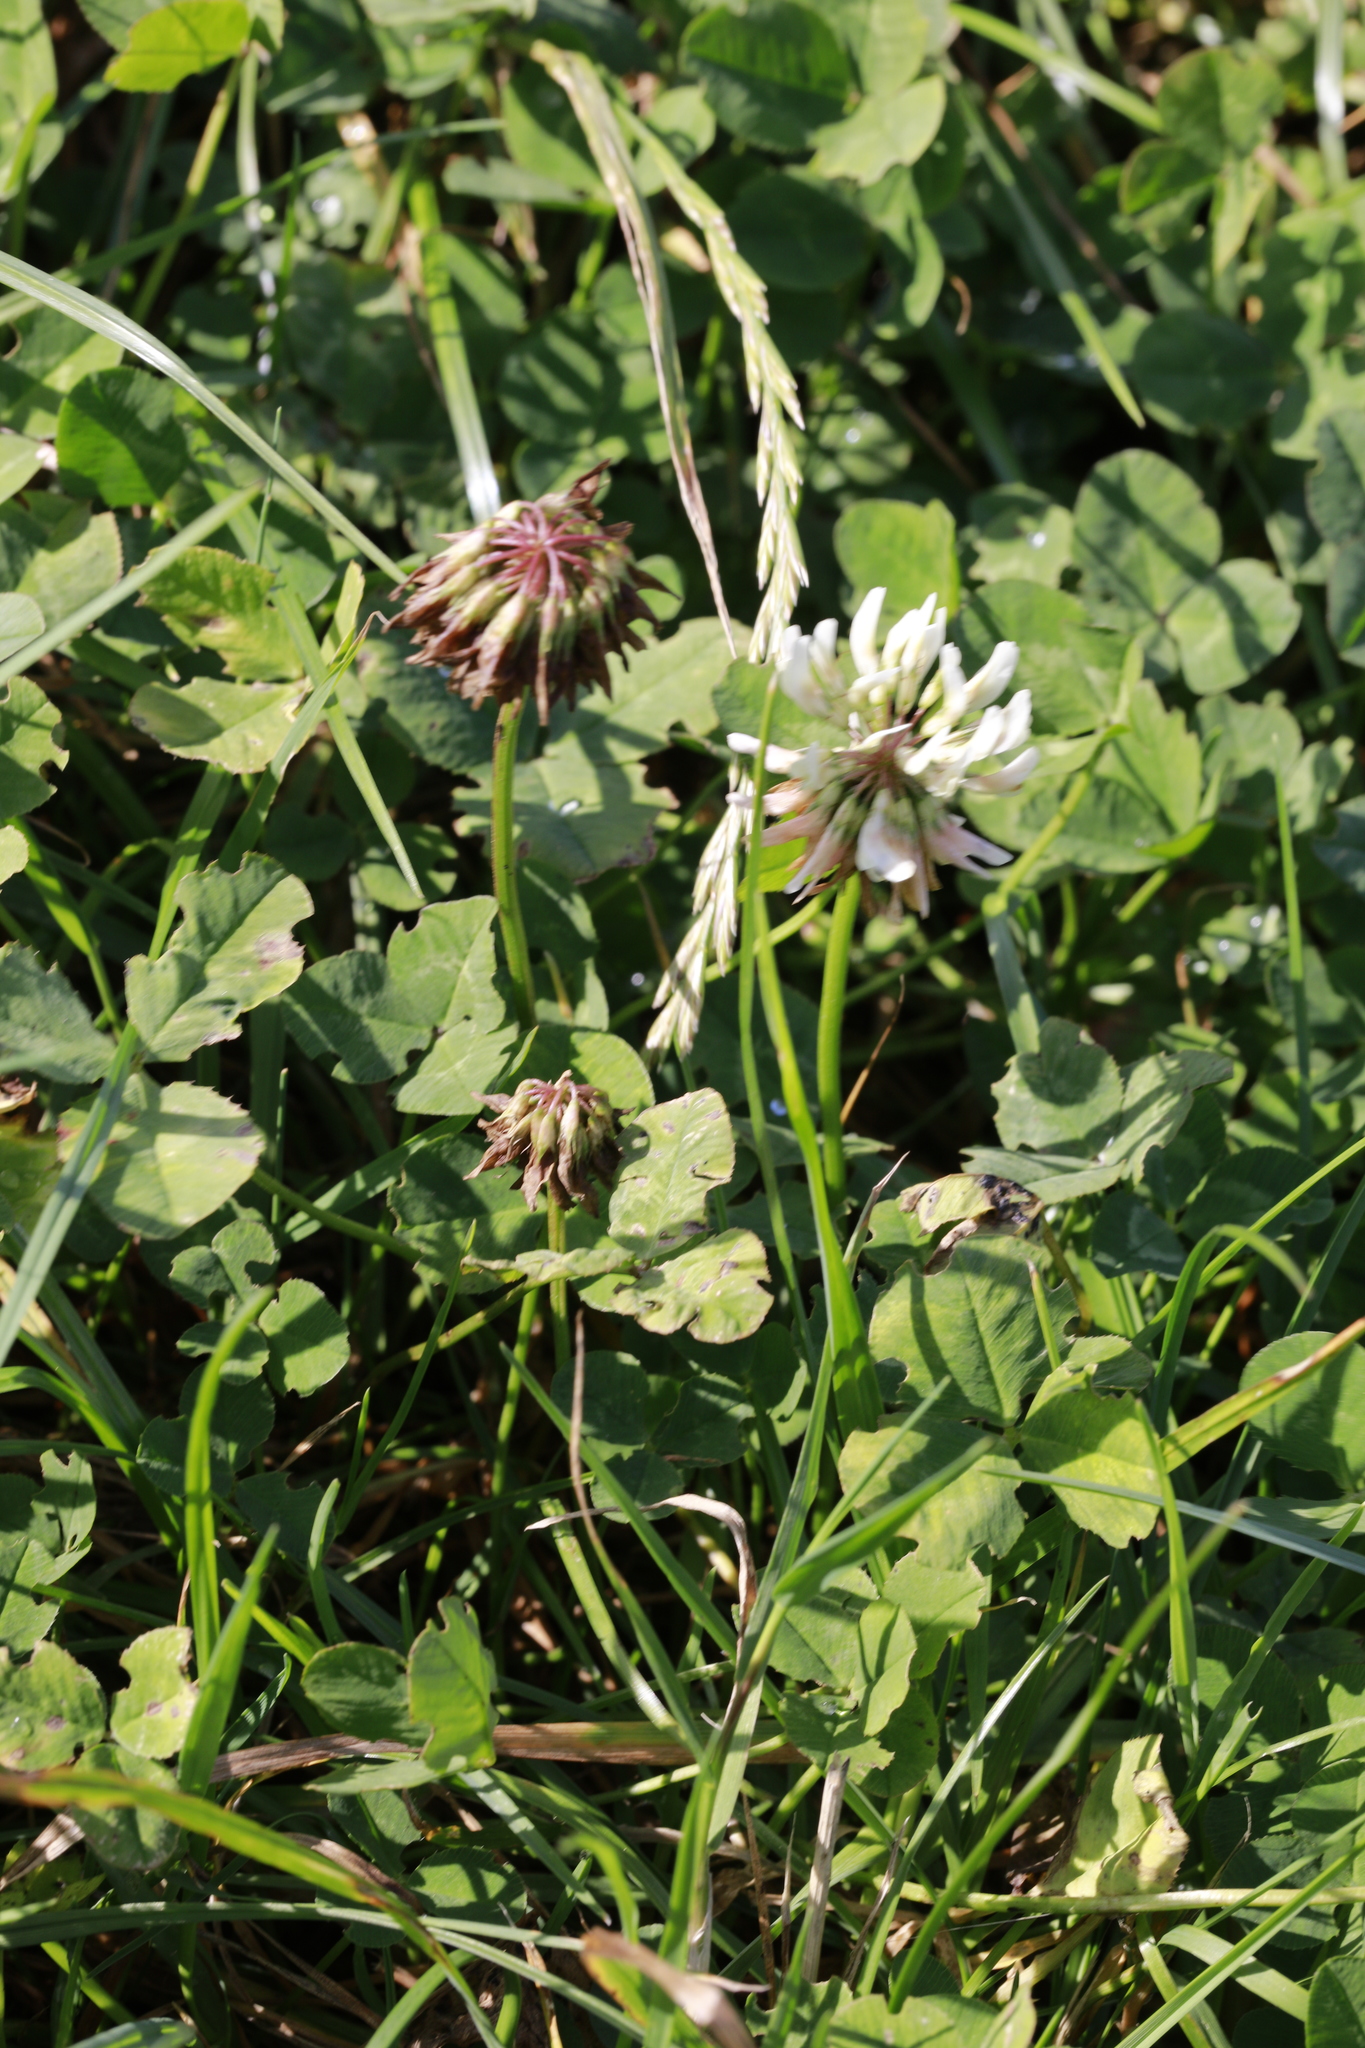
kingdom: Plantae
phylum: Tracheophyta
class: Magnoliopsida
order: Fabales
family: Fabaceae
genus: Trifolium
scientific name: Trifolium repens
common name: White clover
